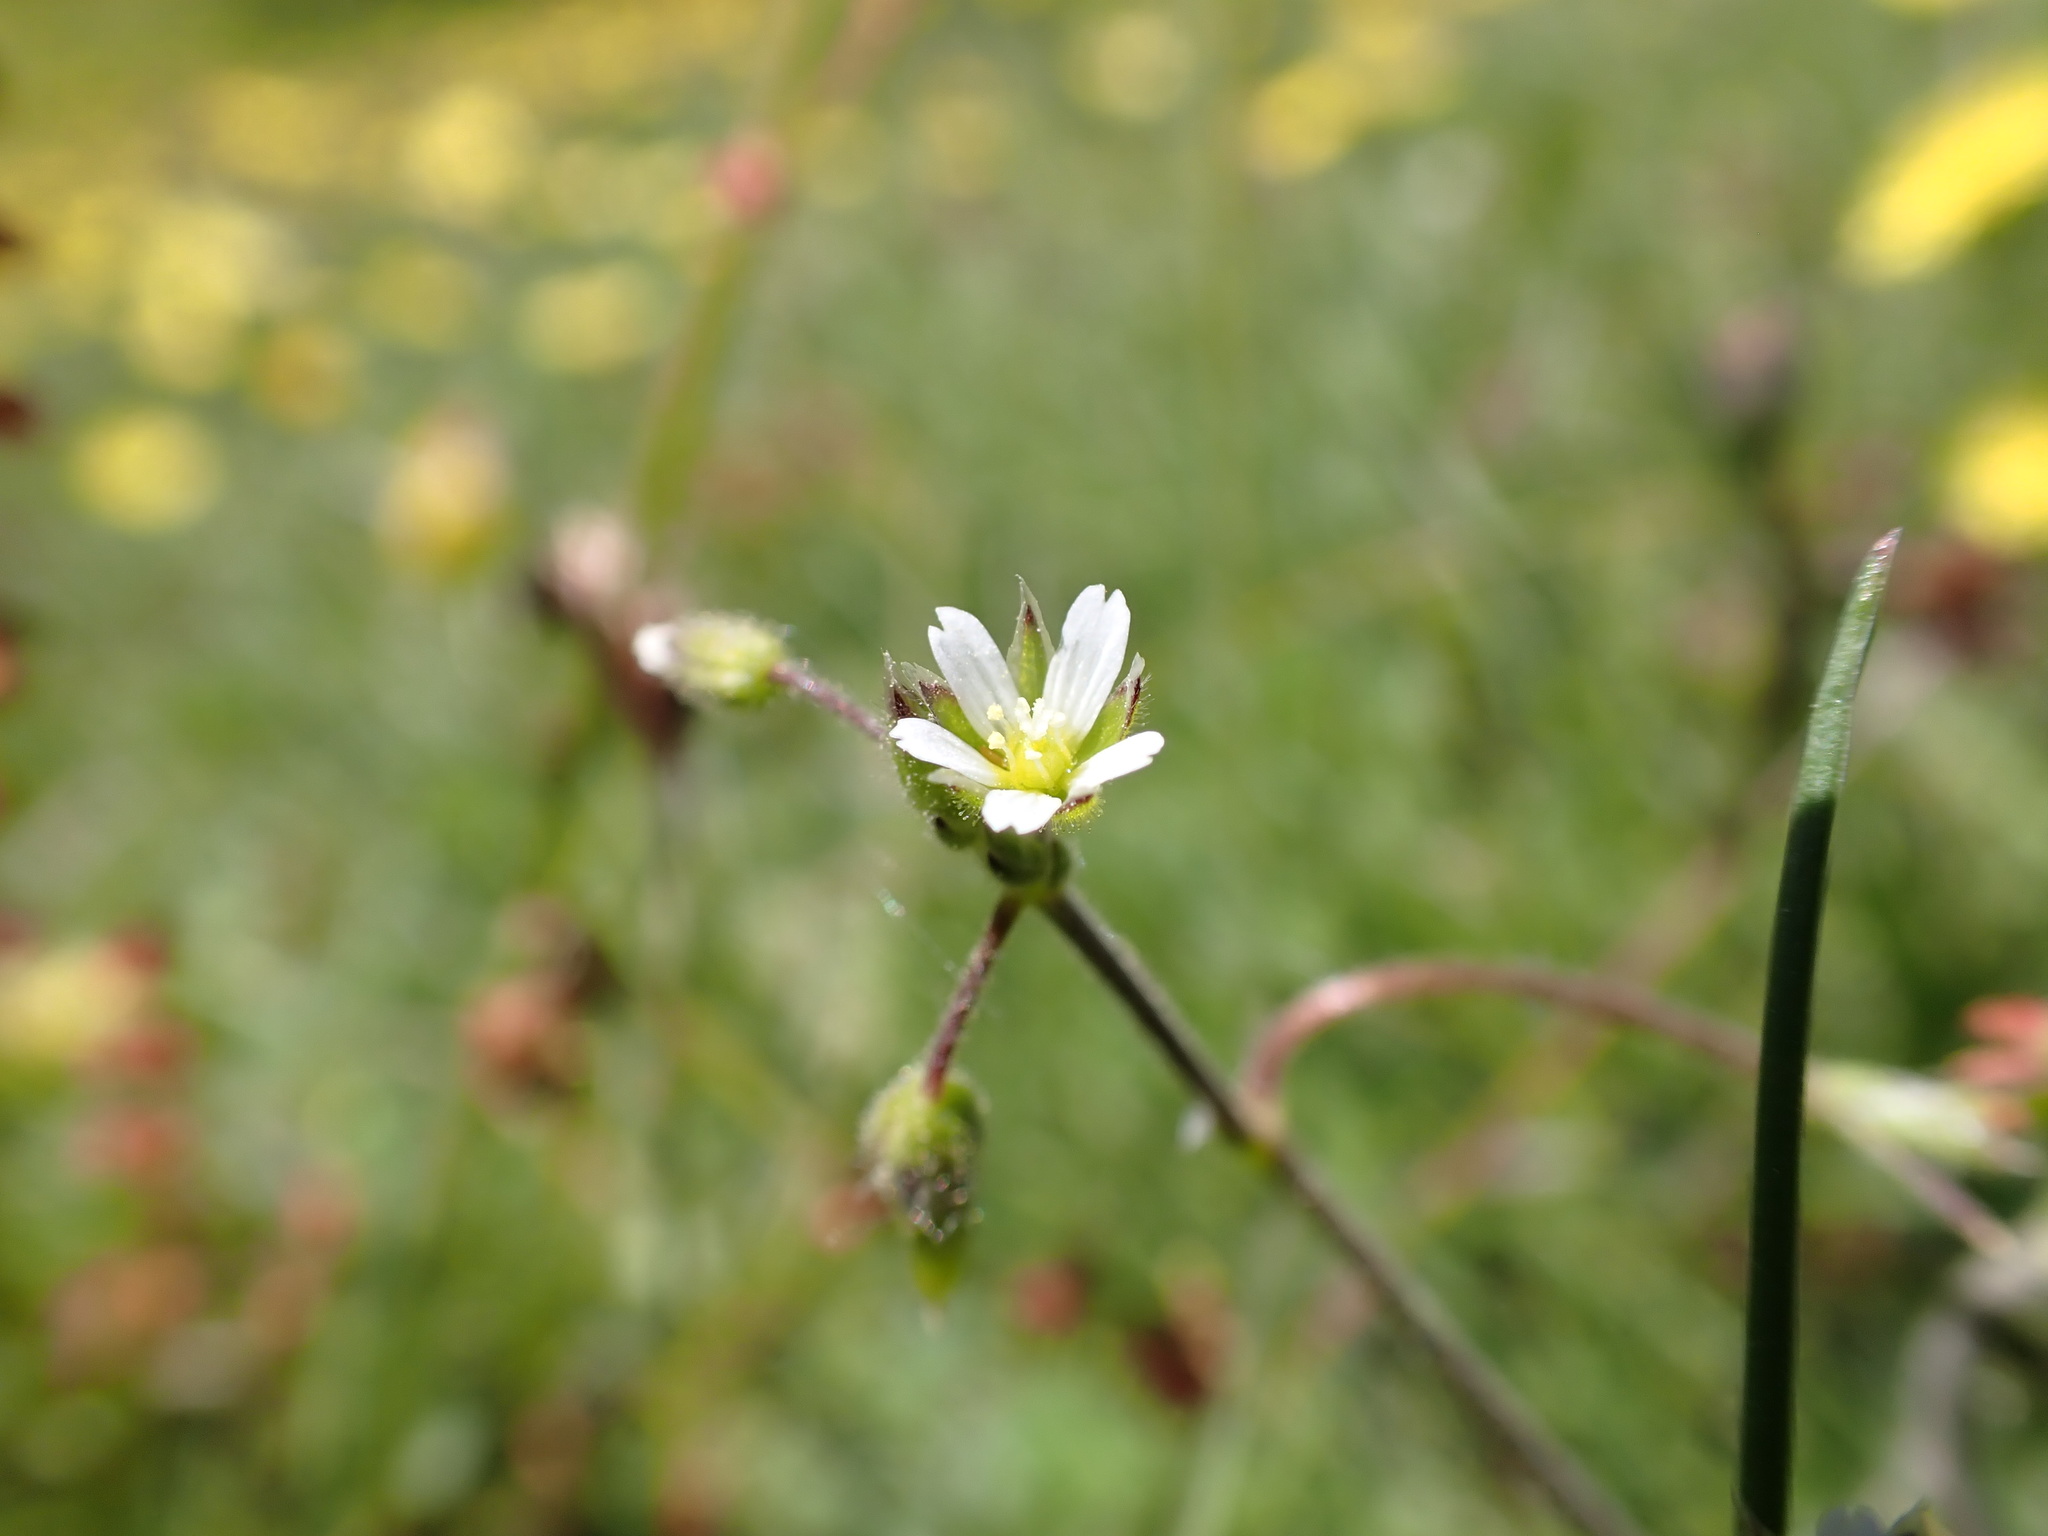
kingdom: Plantae
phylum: Tracheophyta
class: Magnoliopsida
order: Caryophyllales
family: Caryophyllaceae
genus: Cerastium
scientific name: Cerastium semidecandrum
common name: Little mouse-ear
